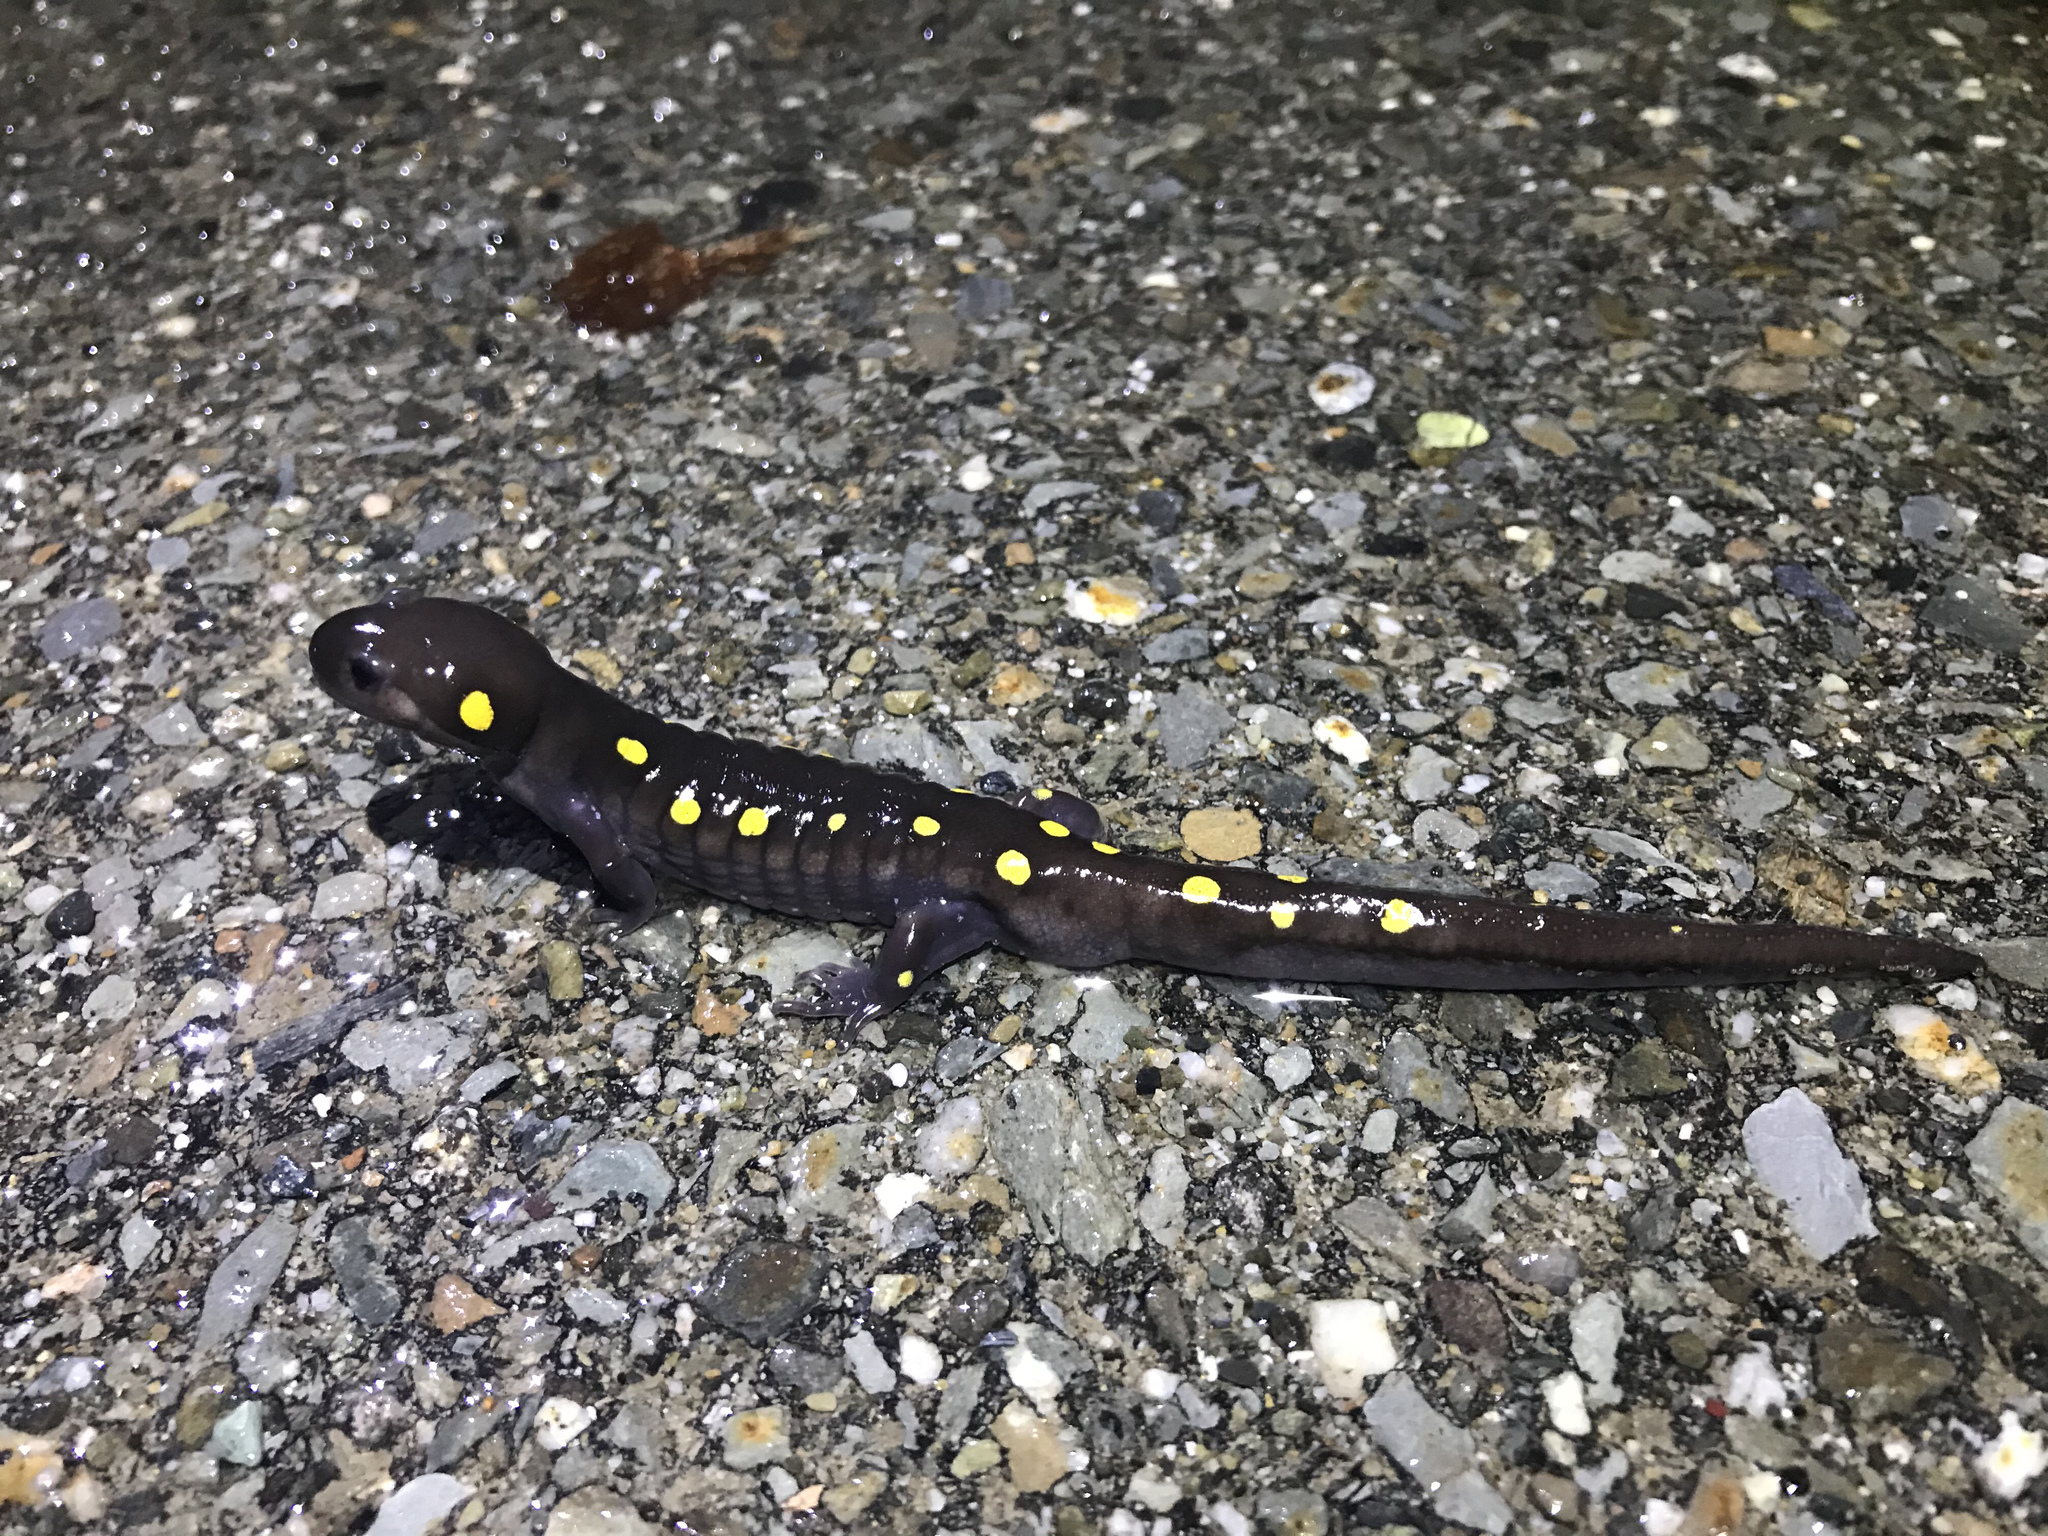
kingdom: Animalia
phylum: Chordata
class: Amphibia
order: Caudata
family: Ambystomatidae
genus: Ambystoma
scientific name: Ambystoma maculatum
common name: Spotted salamander
